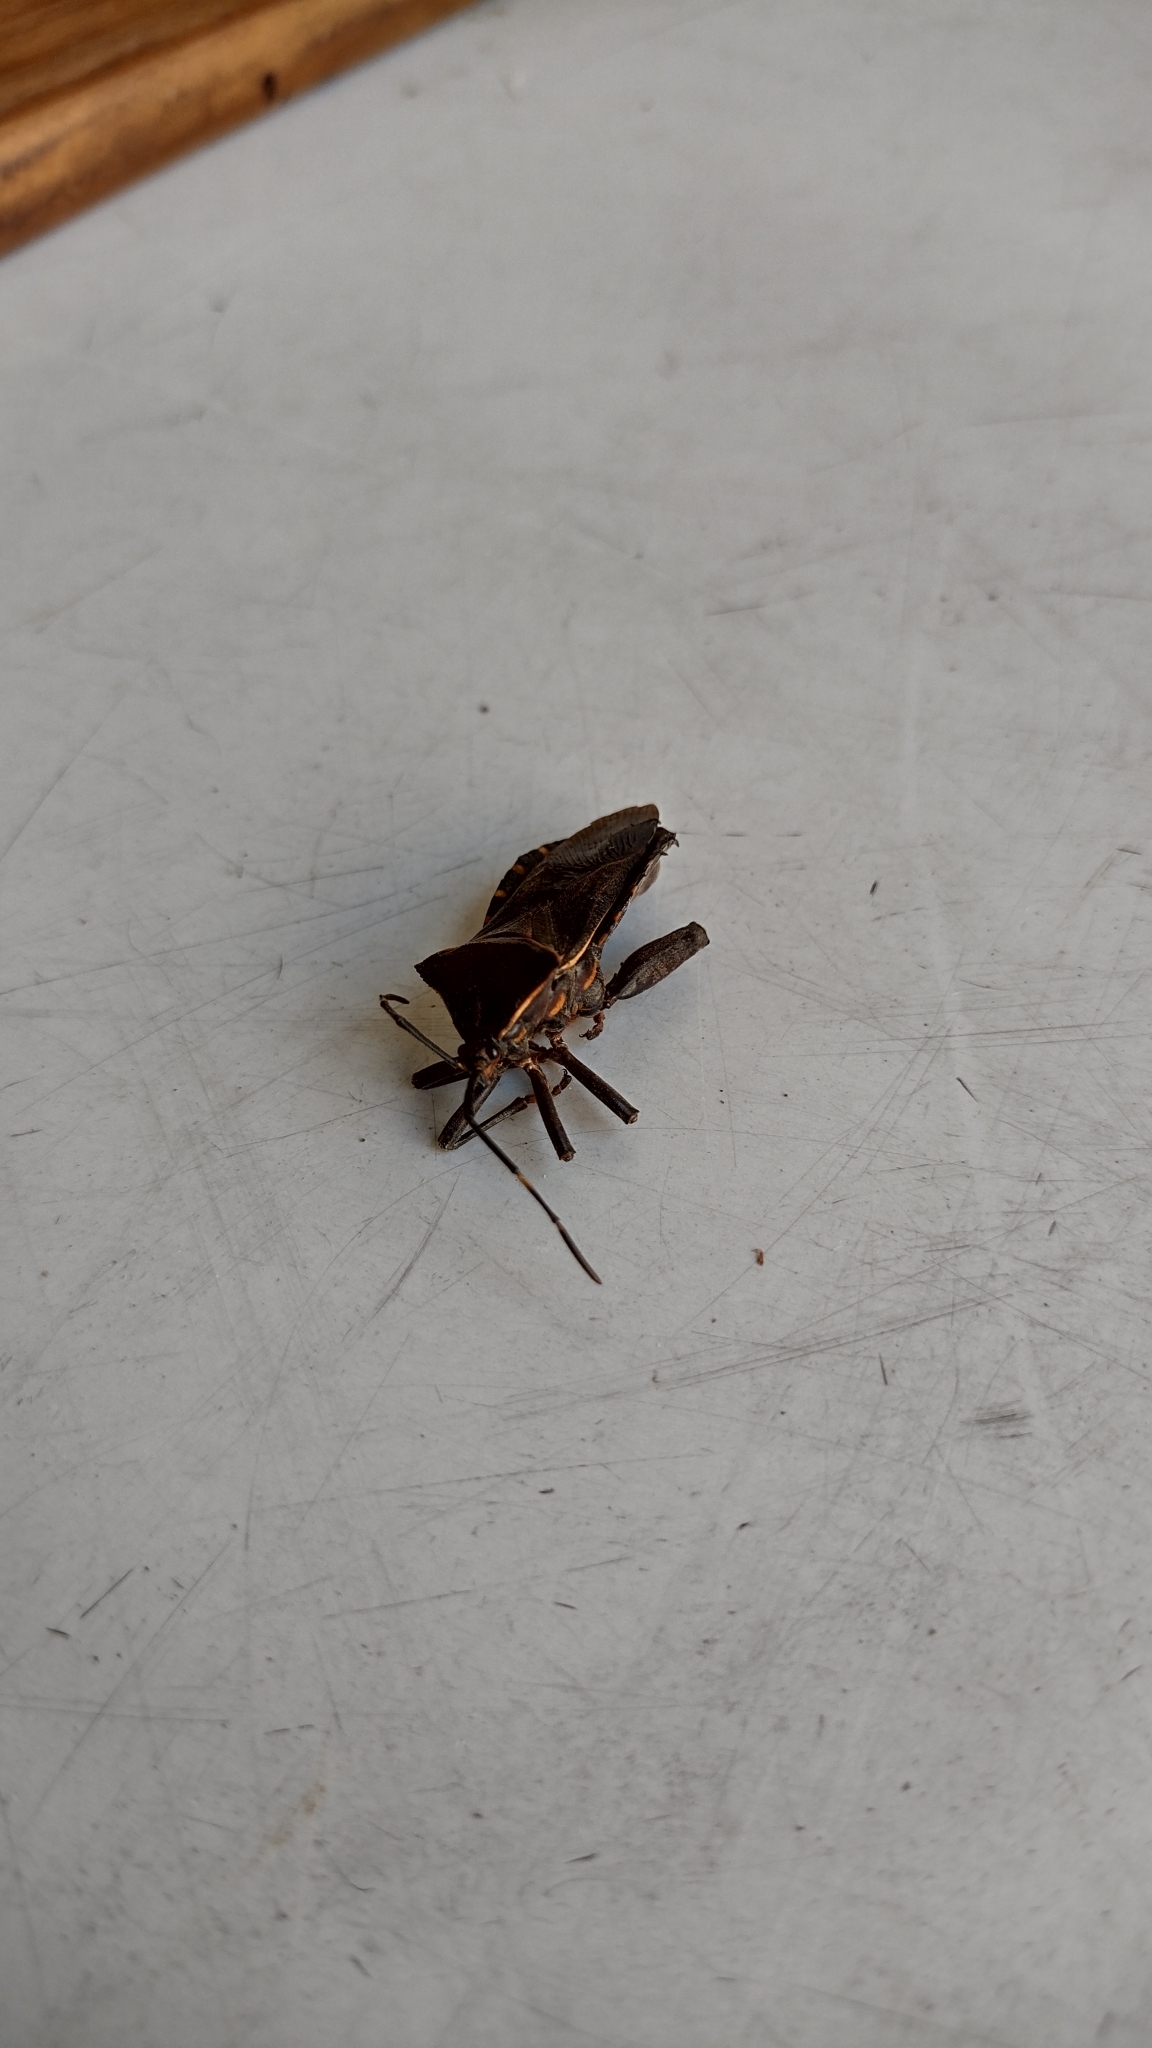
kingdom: Animalia
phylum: Arthropoda
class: Insecta
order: Hemiptera
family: Coreidae
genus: Pachylis
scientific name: Pachylis argentinus
